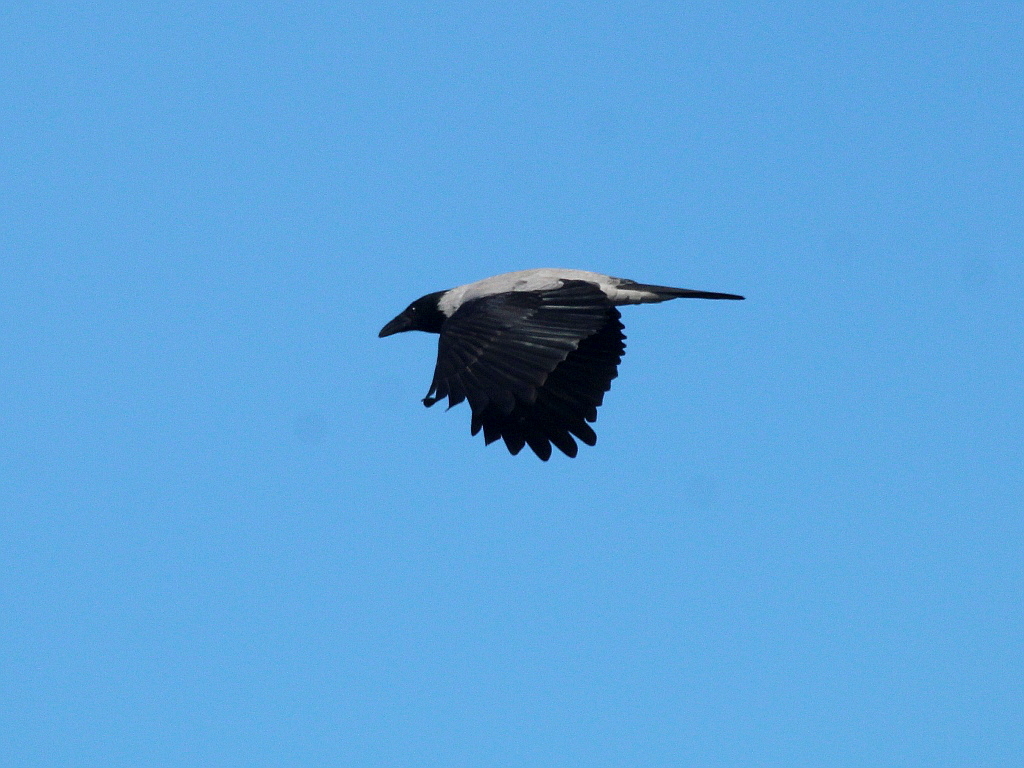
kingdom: Animalia
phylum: Chordata
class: Aves
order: Passeriformes
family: Corvidae
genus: Corvus
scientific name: Corvus cornix
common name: Hooded crow
